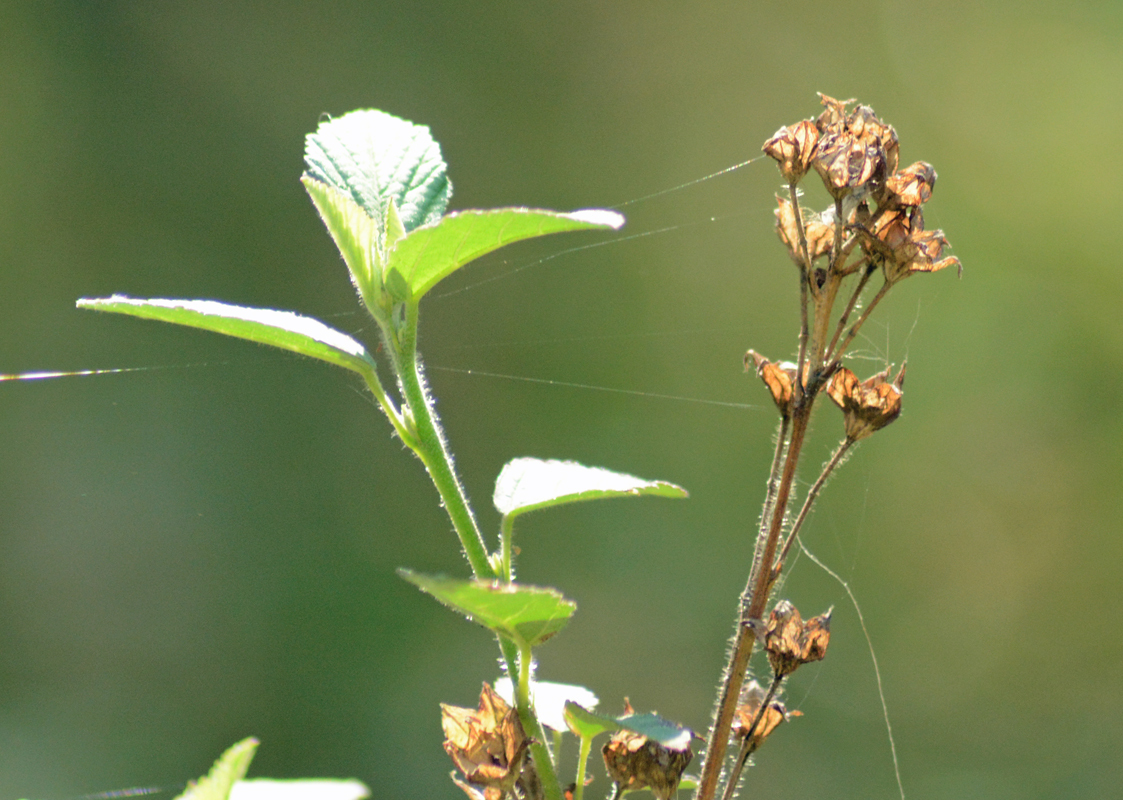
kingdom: Plantae
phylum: Tracheophyta
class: Magnoliopsida
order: Malvales
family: Malvaceae
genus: Sida
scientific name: Sida rhombifolia
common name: Queensland-hemp
